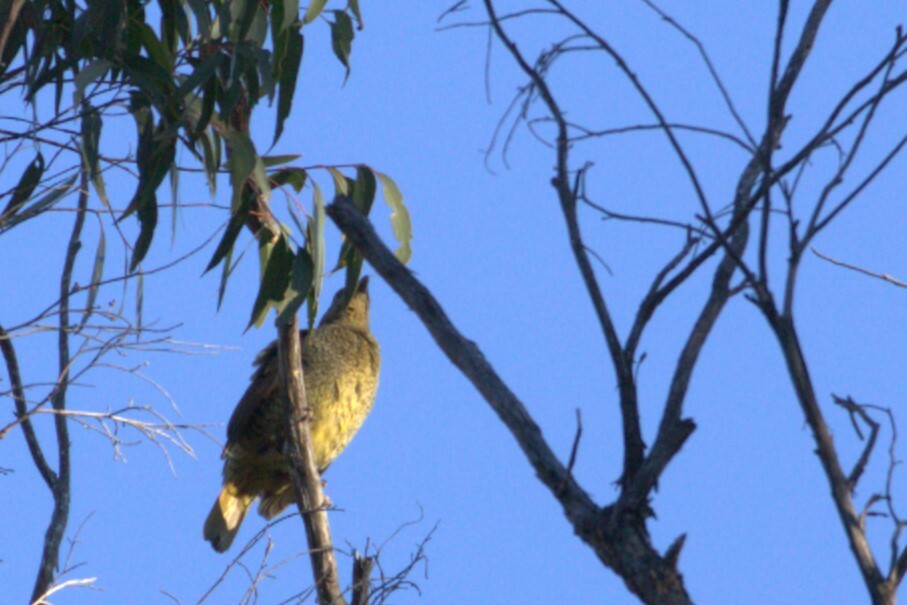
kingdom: Animalia
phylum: Chordata
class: Aves
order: Passeriformes
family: Ptilonorhynchidae
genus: Ptilonorhynchus
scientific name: Ptilonorhynchus violaceus
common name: Satin bowerbird
